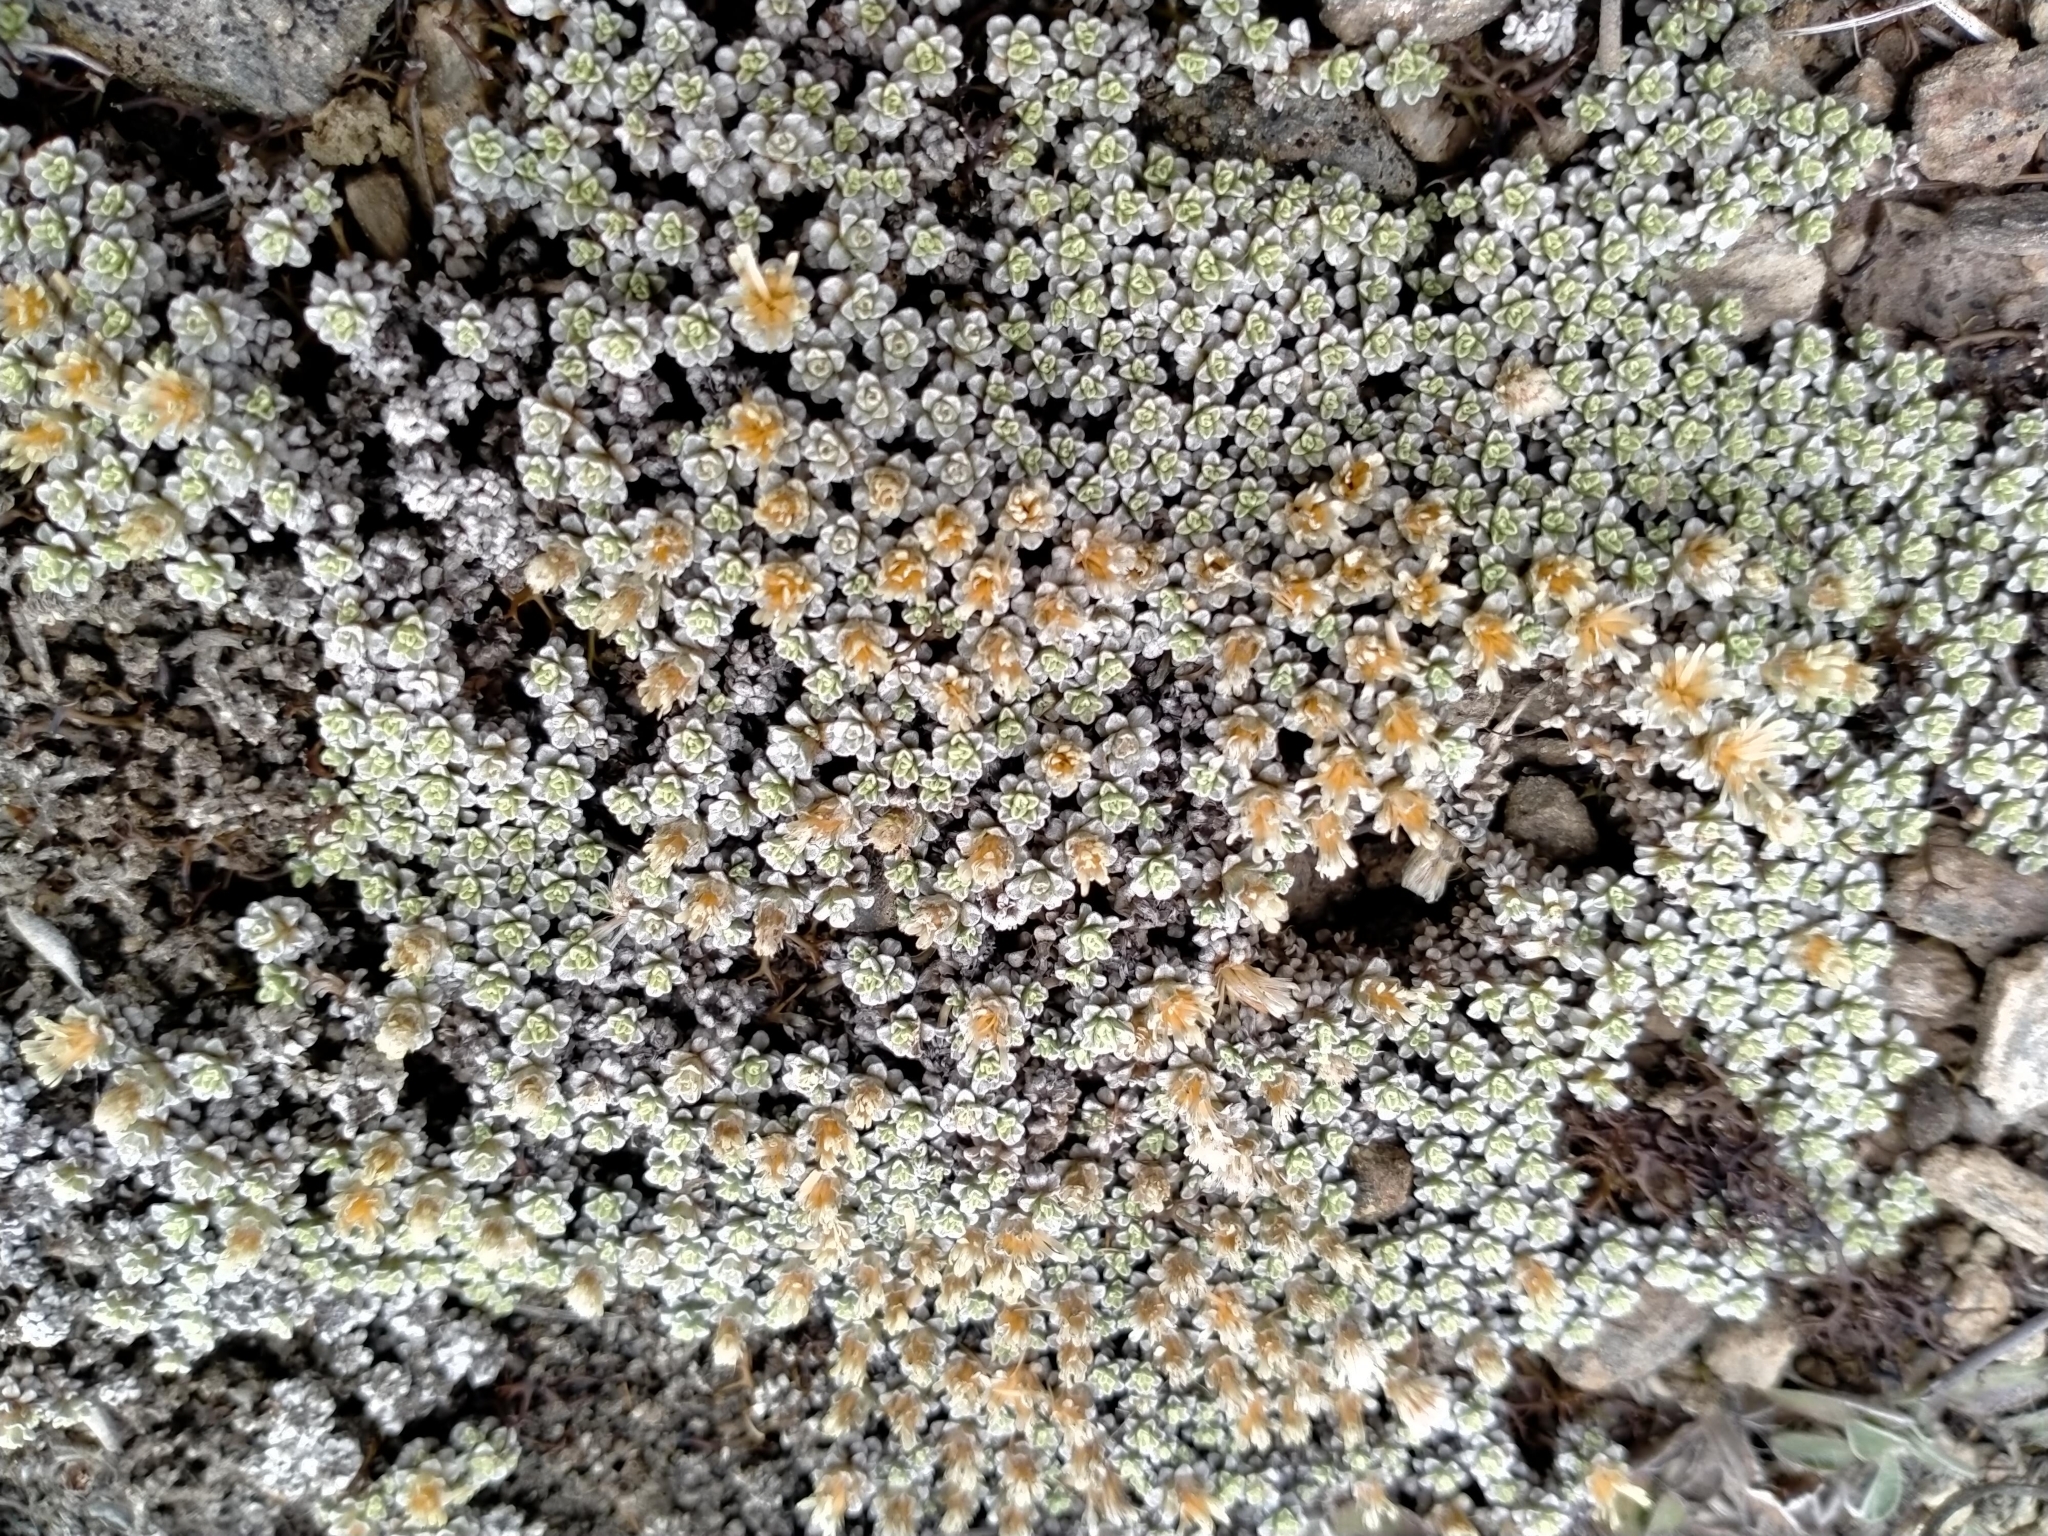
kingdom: Plantae
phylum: Tracheophyta
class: Magnoliopsida
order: Asterales
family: Asteraceae
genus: Raoulia
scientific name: Raoulia parkii
